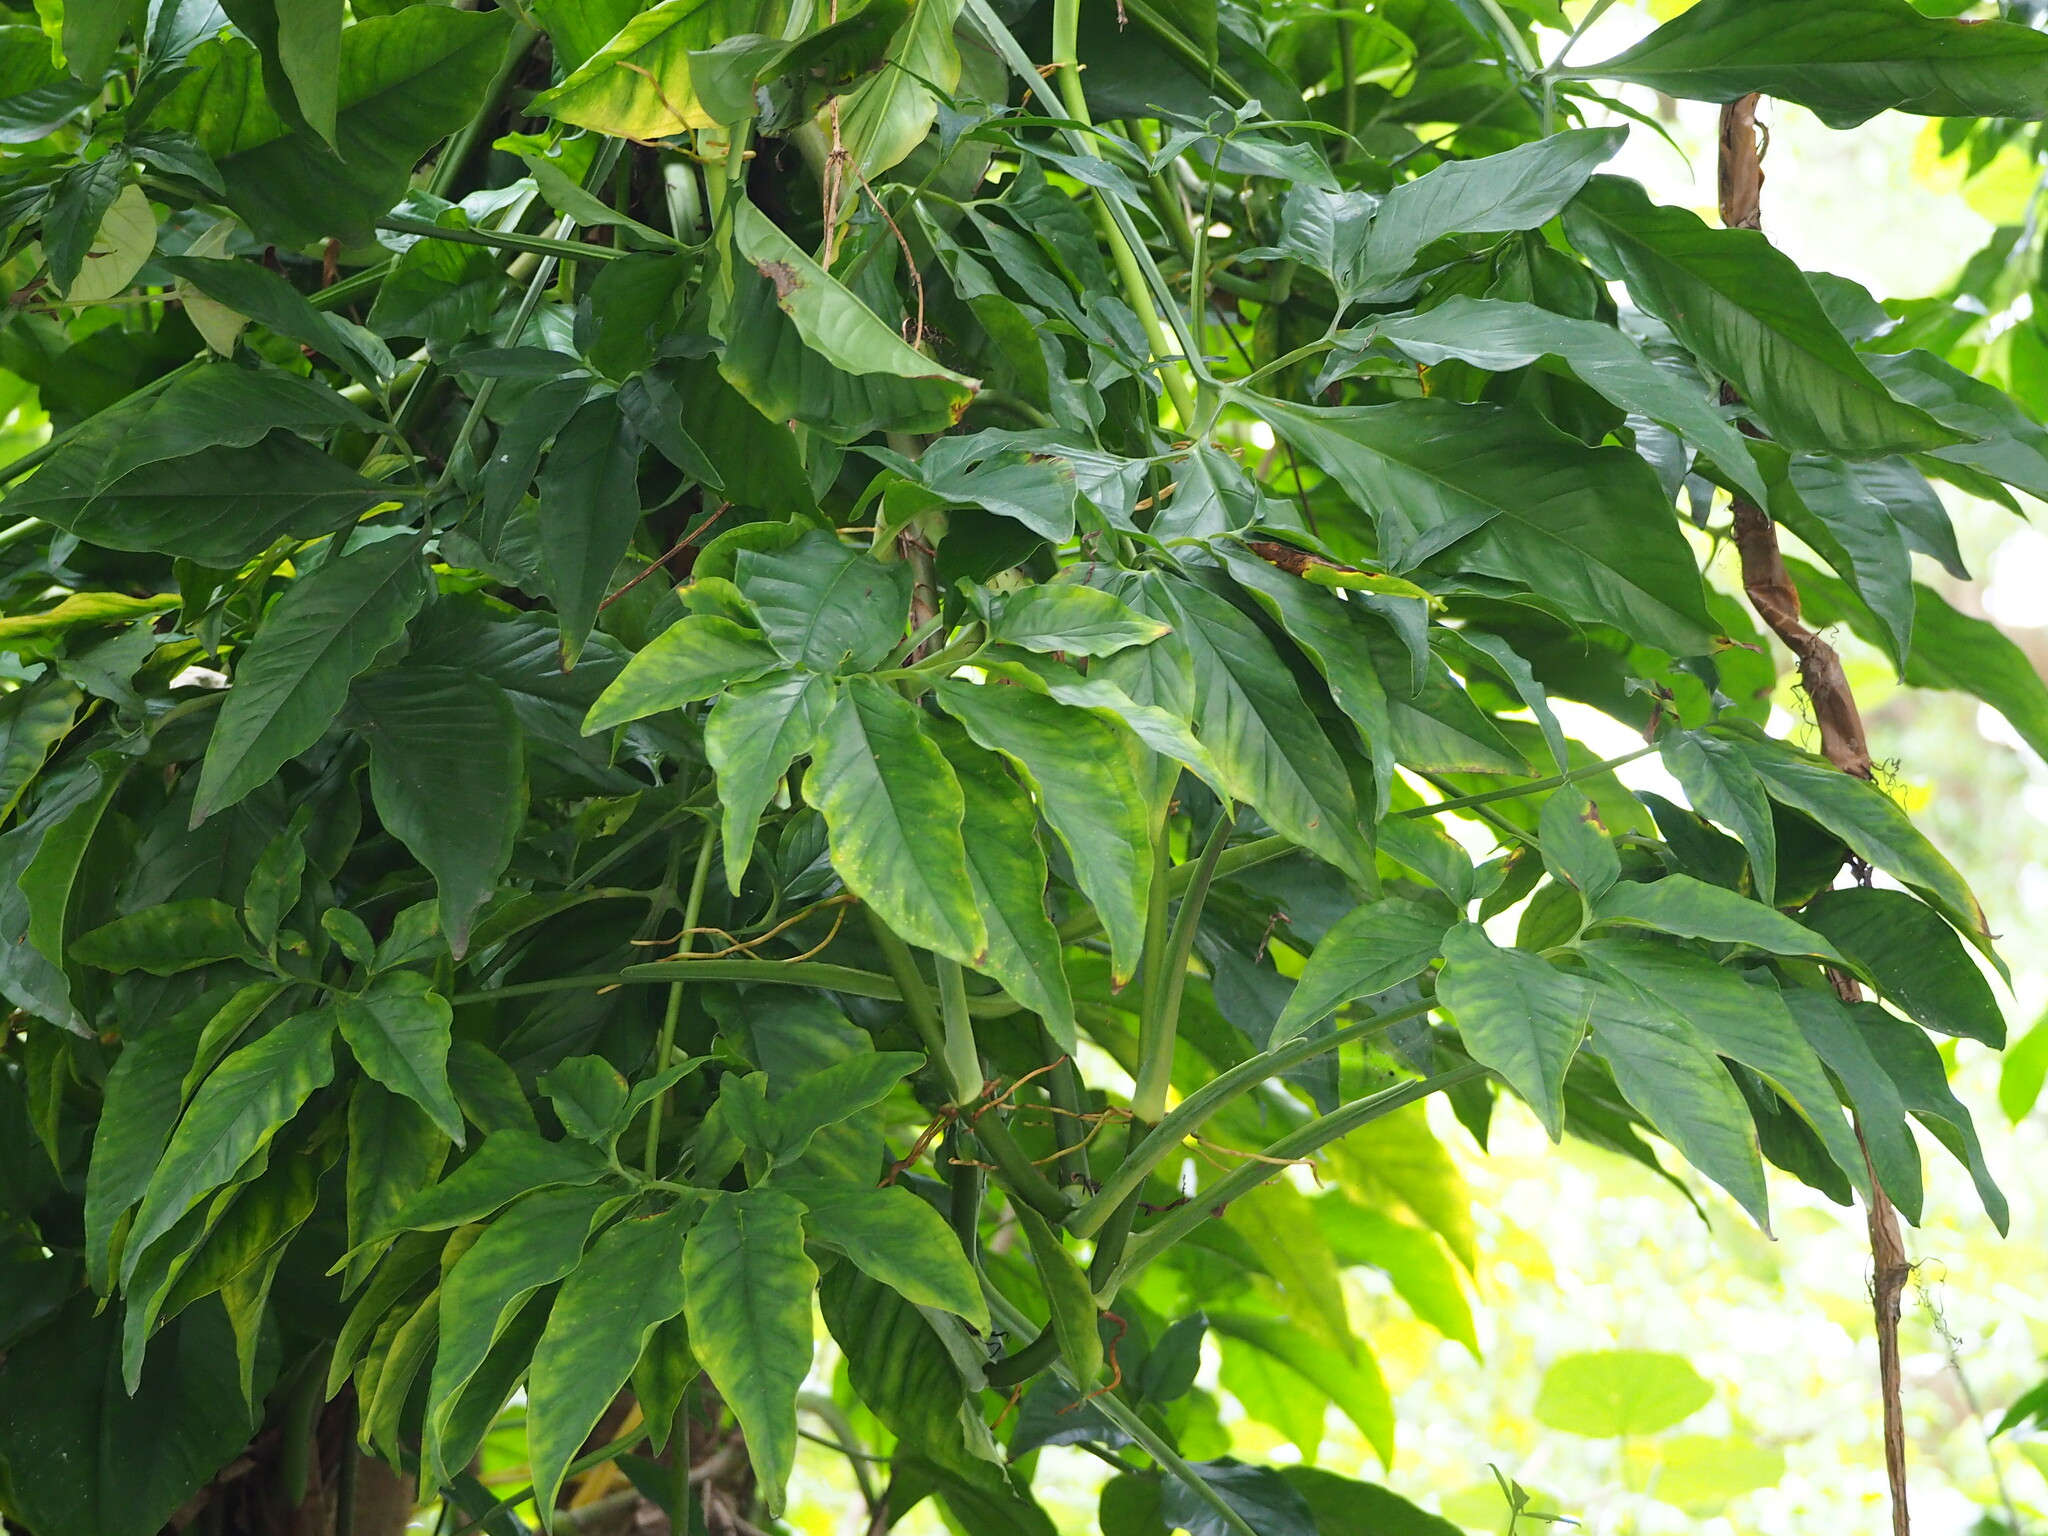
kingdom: Plantae
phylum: Tracheophyta
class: Liliopsida
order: Alismatales
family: Araceae
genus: Syngonium
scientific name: Syngonium angustatum
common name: Fivefingers
